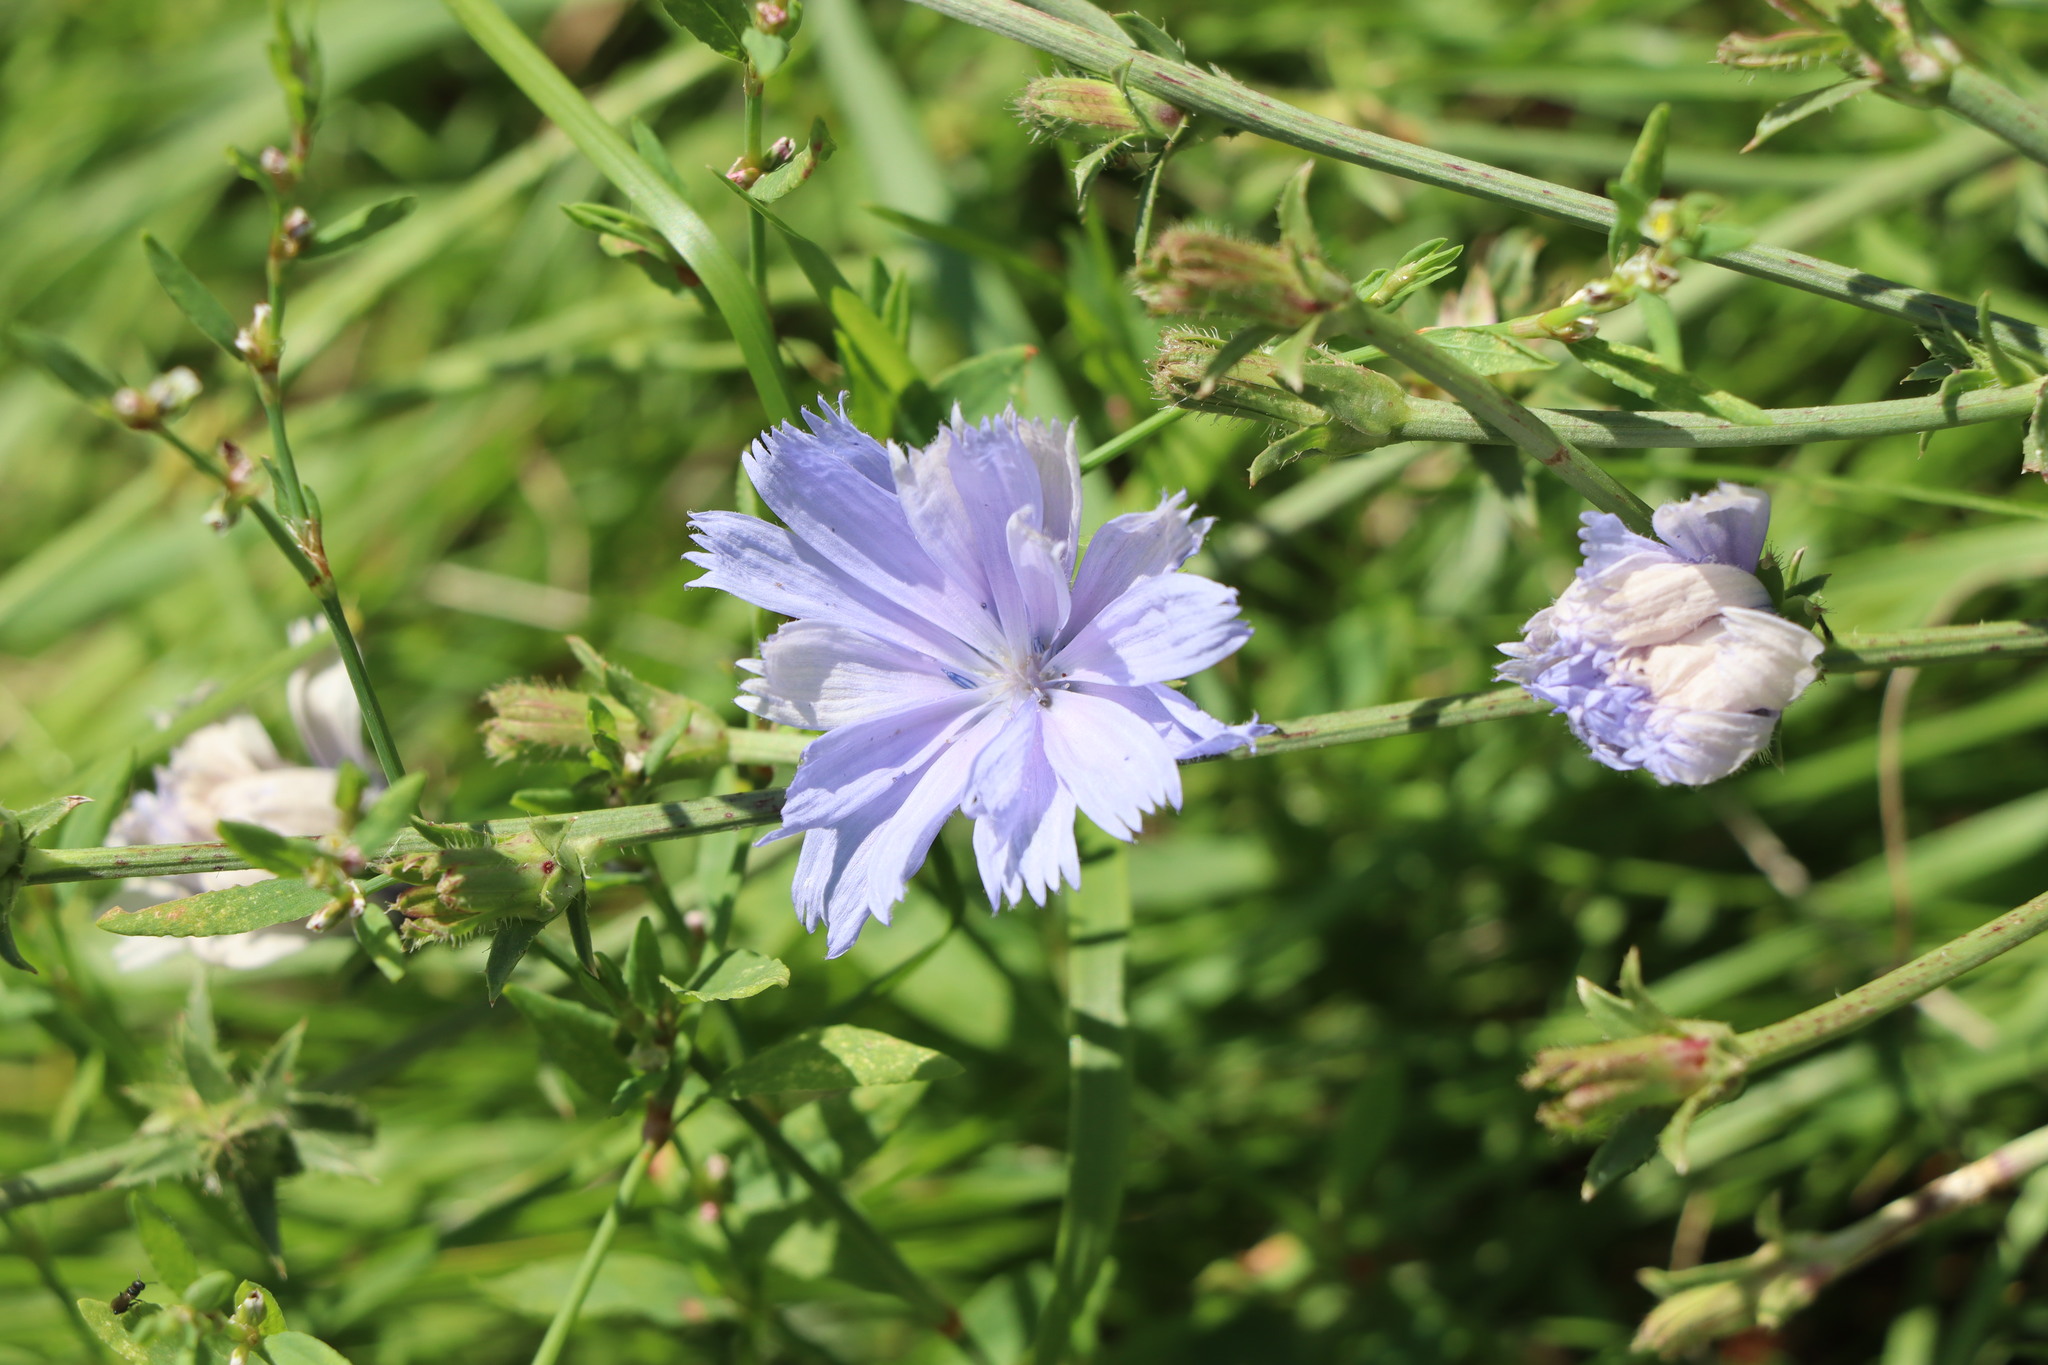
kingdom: Plantae
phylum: Tracheophyta
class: Magnoliopsida
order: Asterales
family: Asteraceae
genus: Cichorium
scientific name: Cichorium intybus
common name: Chicory
